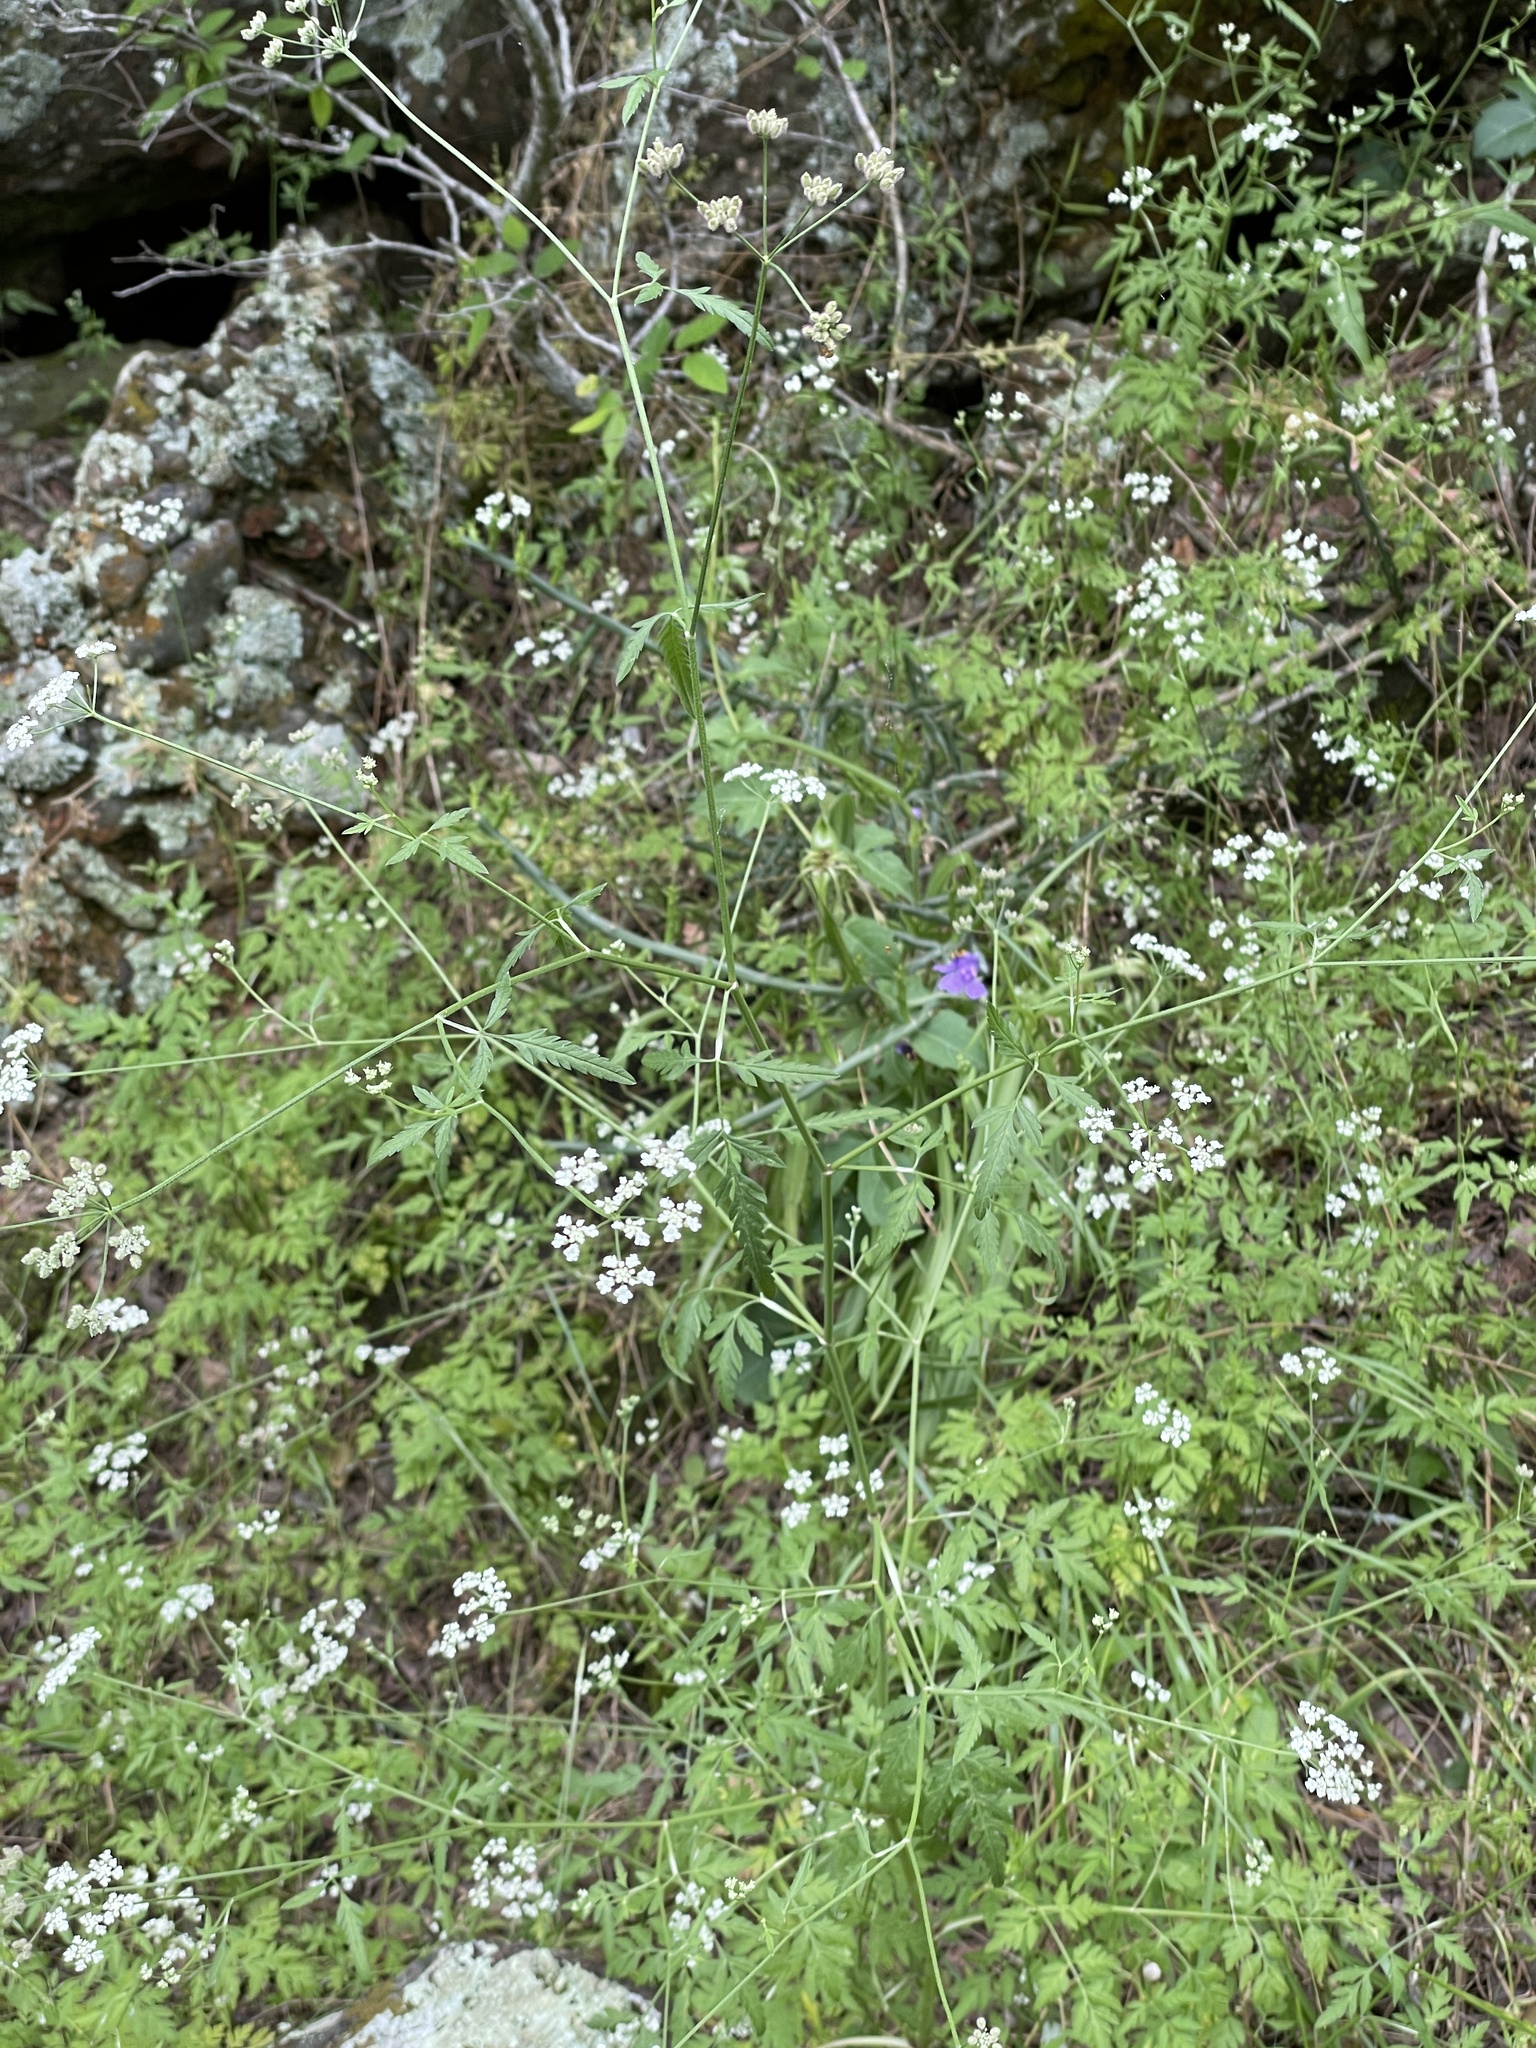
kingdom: Plantae
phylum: Tracheophyta
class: Magnoliopsida
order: Apiales
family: Apiaceae
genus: Torilis
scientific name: Torilis arvensis
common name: Spreading hedge-parsley
